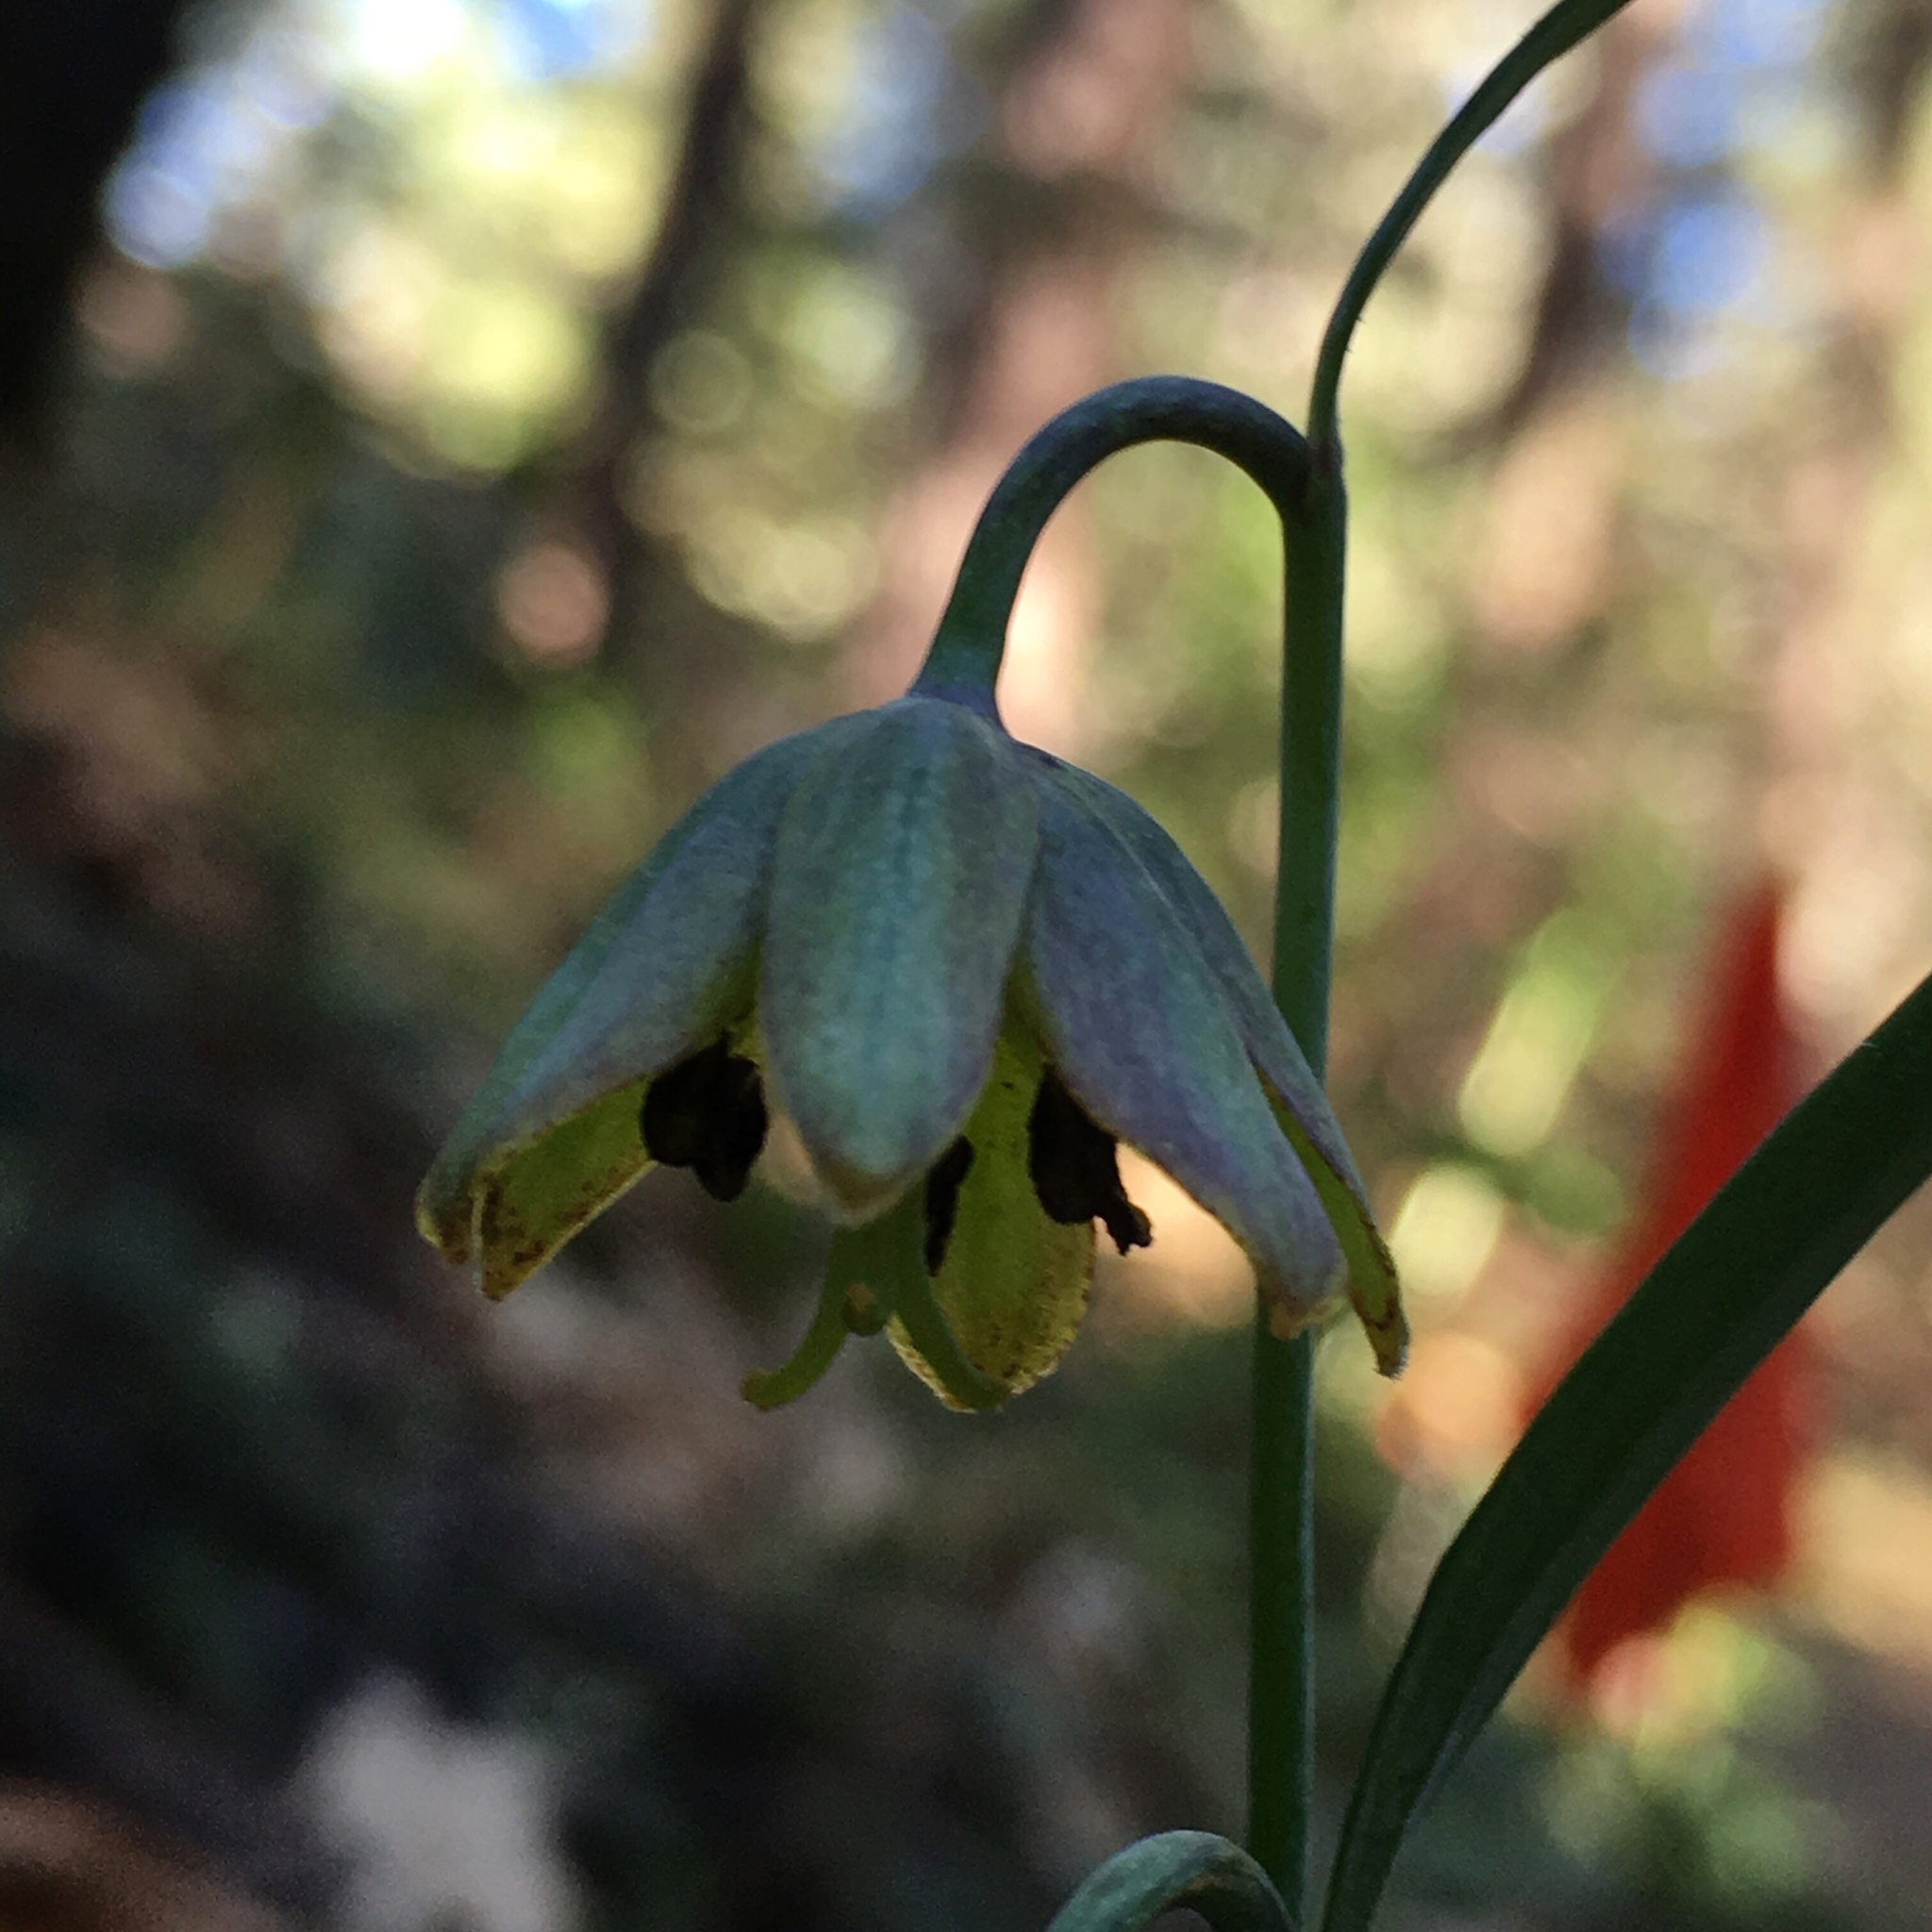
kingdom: Plantae
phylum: Tracheophyta
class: Liliopsida
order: Liliales
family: Liliaceae
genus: Fritillaria
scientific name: Fritillaria micrantha
